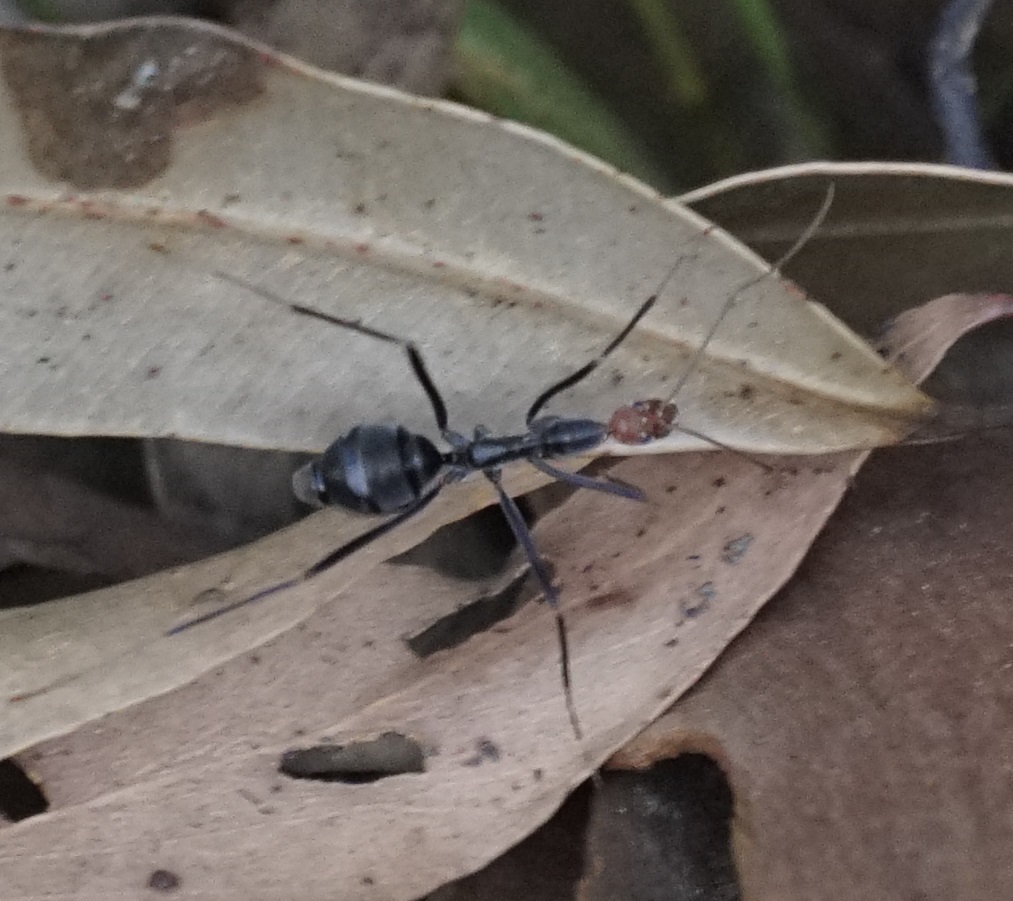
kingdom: Animalia
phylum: Arthropoda
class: Insecta
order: Hymenoptera
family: Formicidae
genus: Leptomyrmex
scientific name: Leptomyrmex erythrocephalus
